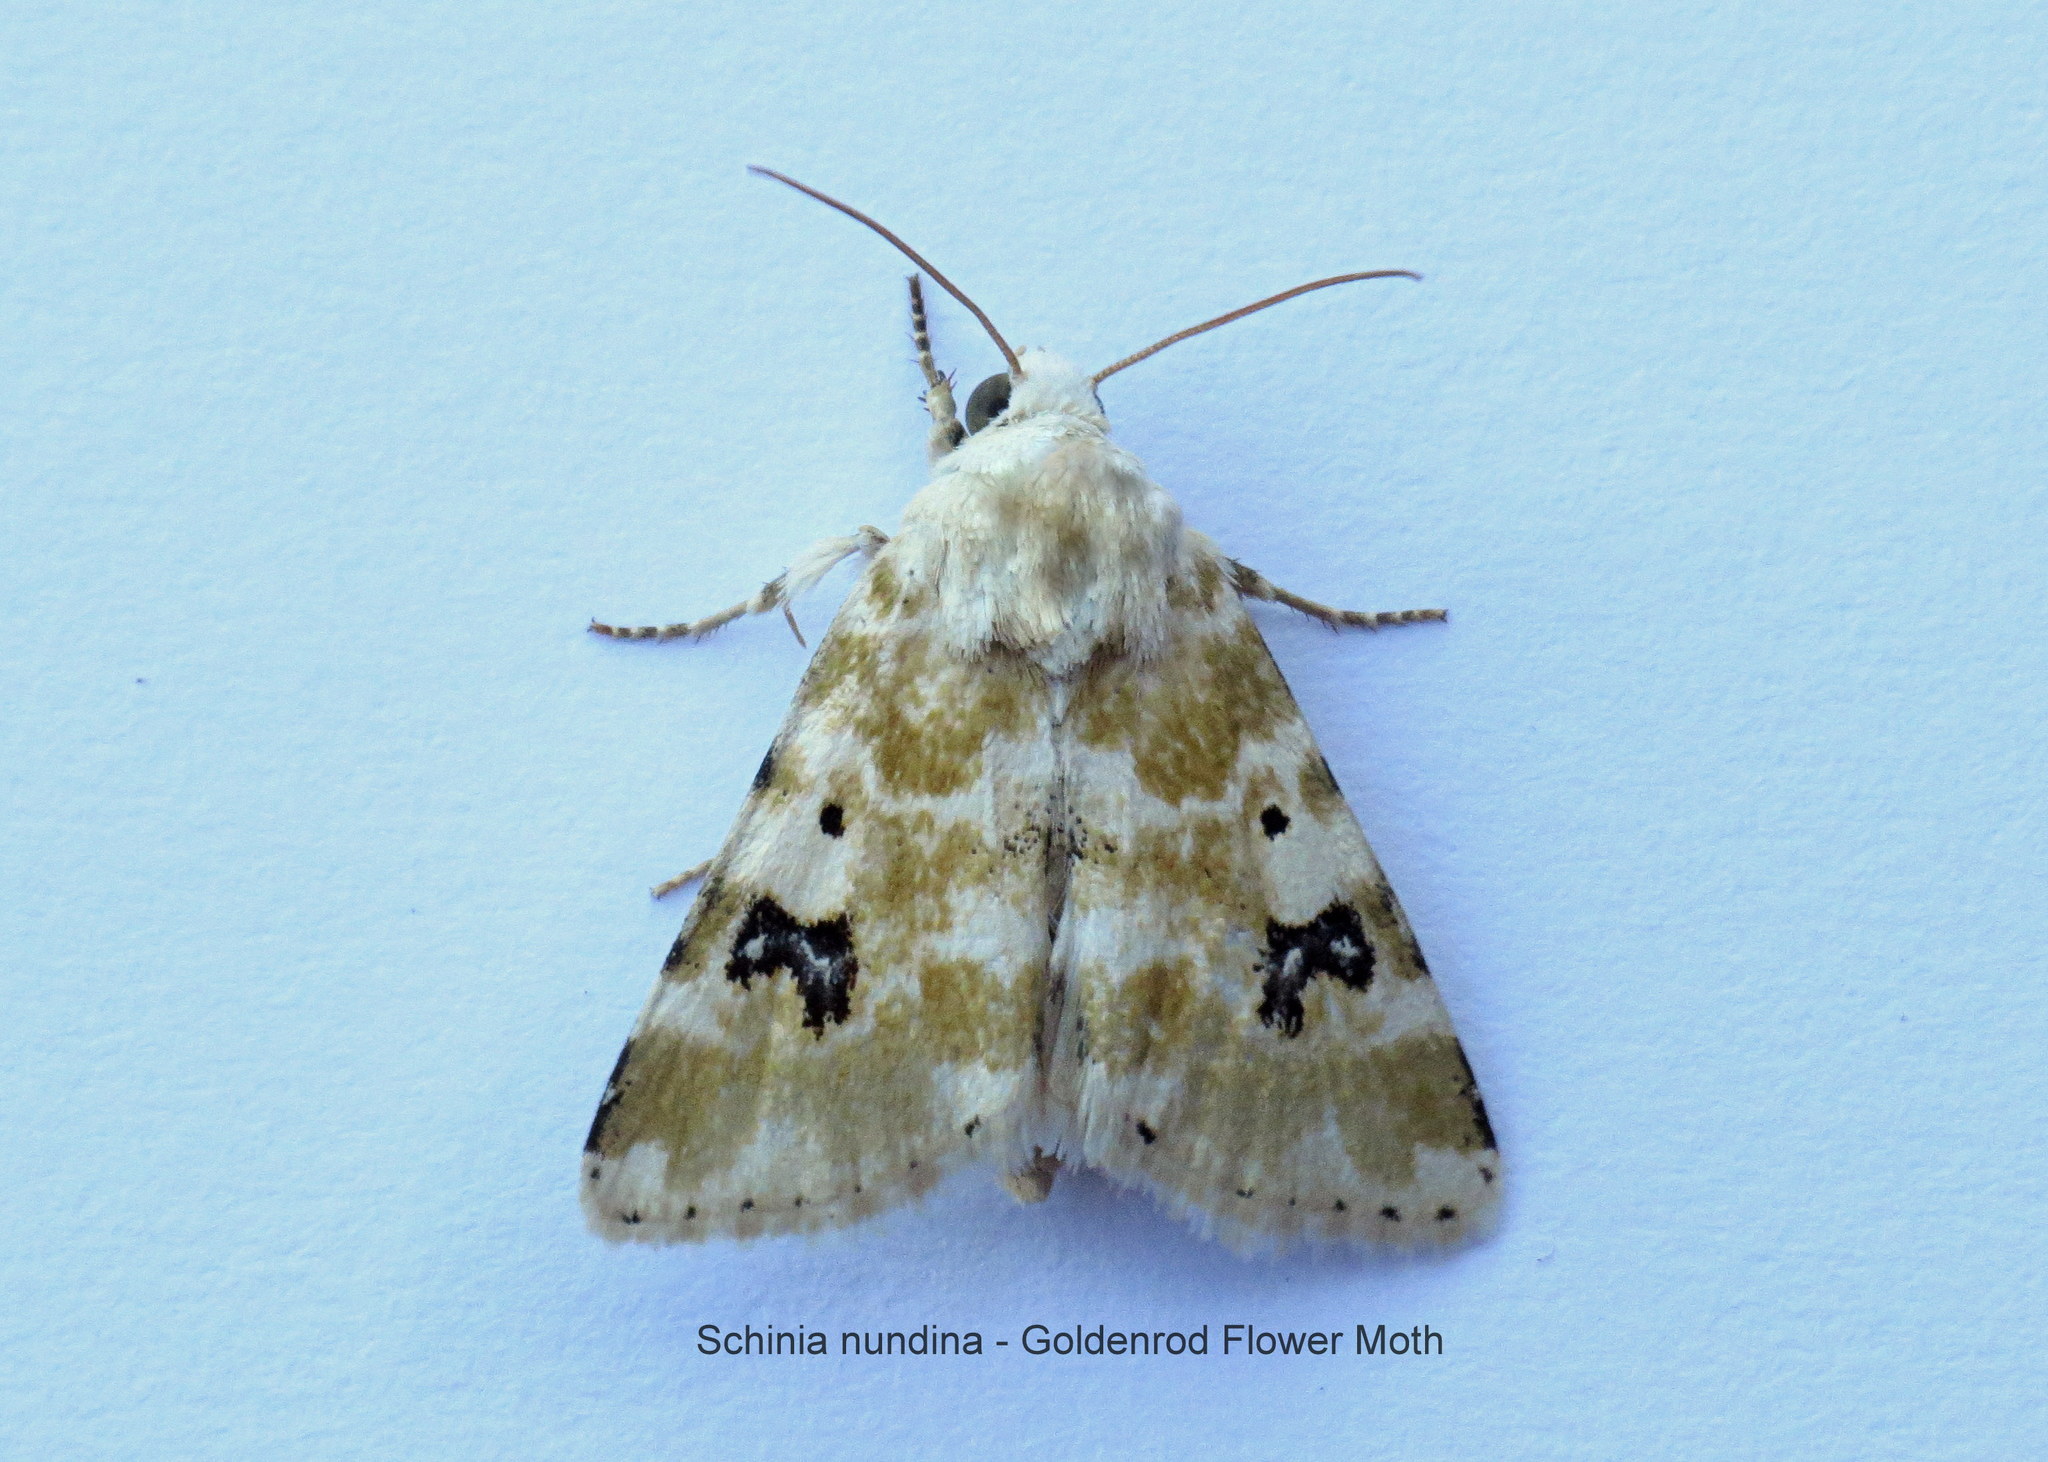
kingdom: Animalia
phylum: Arthropoda
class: Insecta
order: Lepidoptera
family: Noctuidae
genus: Schinia
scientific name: Schinia nundina
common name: Goldenrod flower moth
